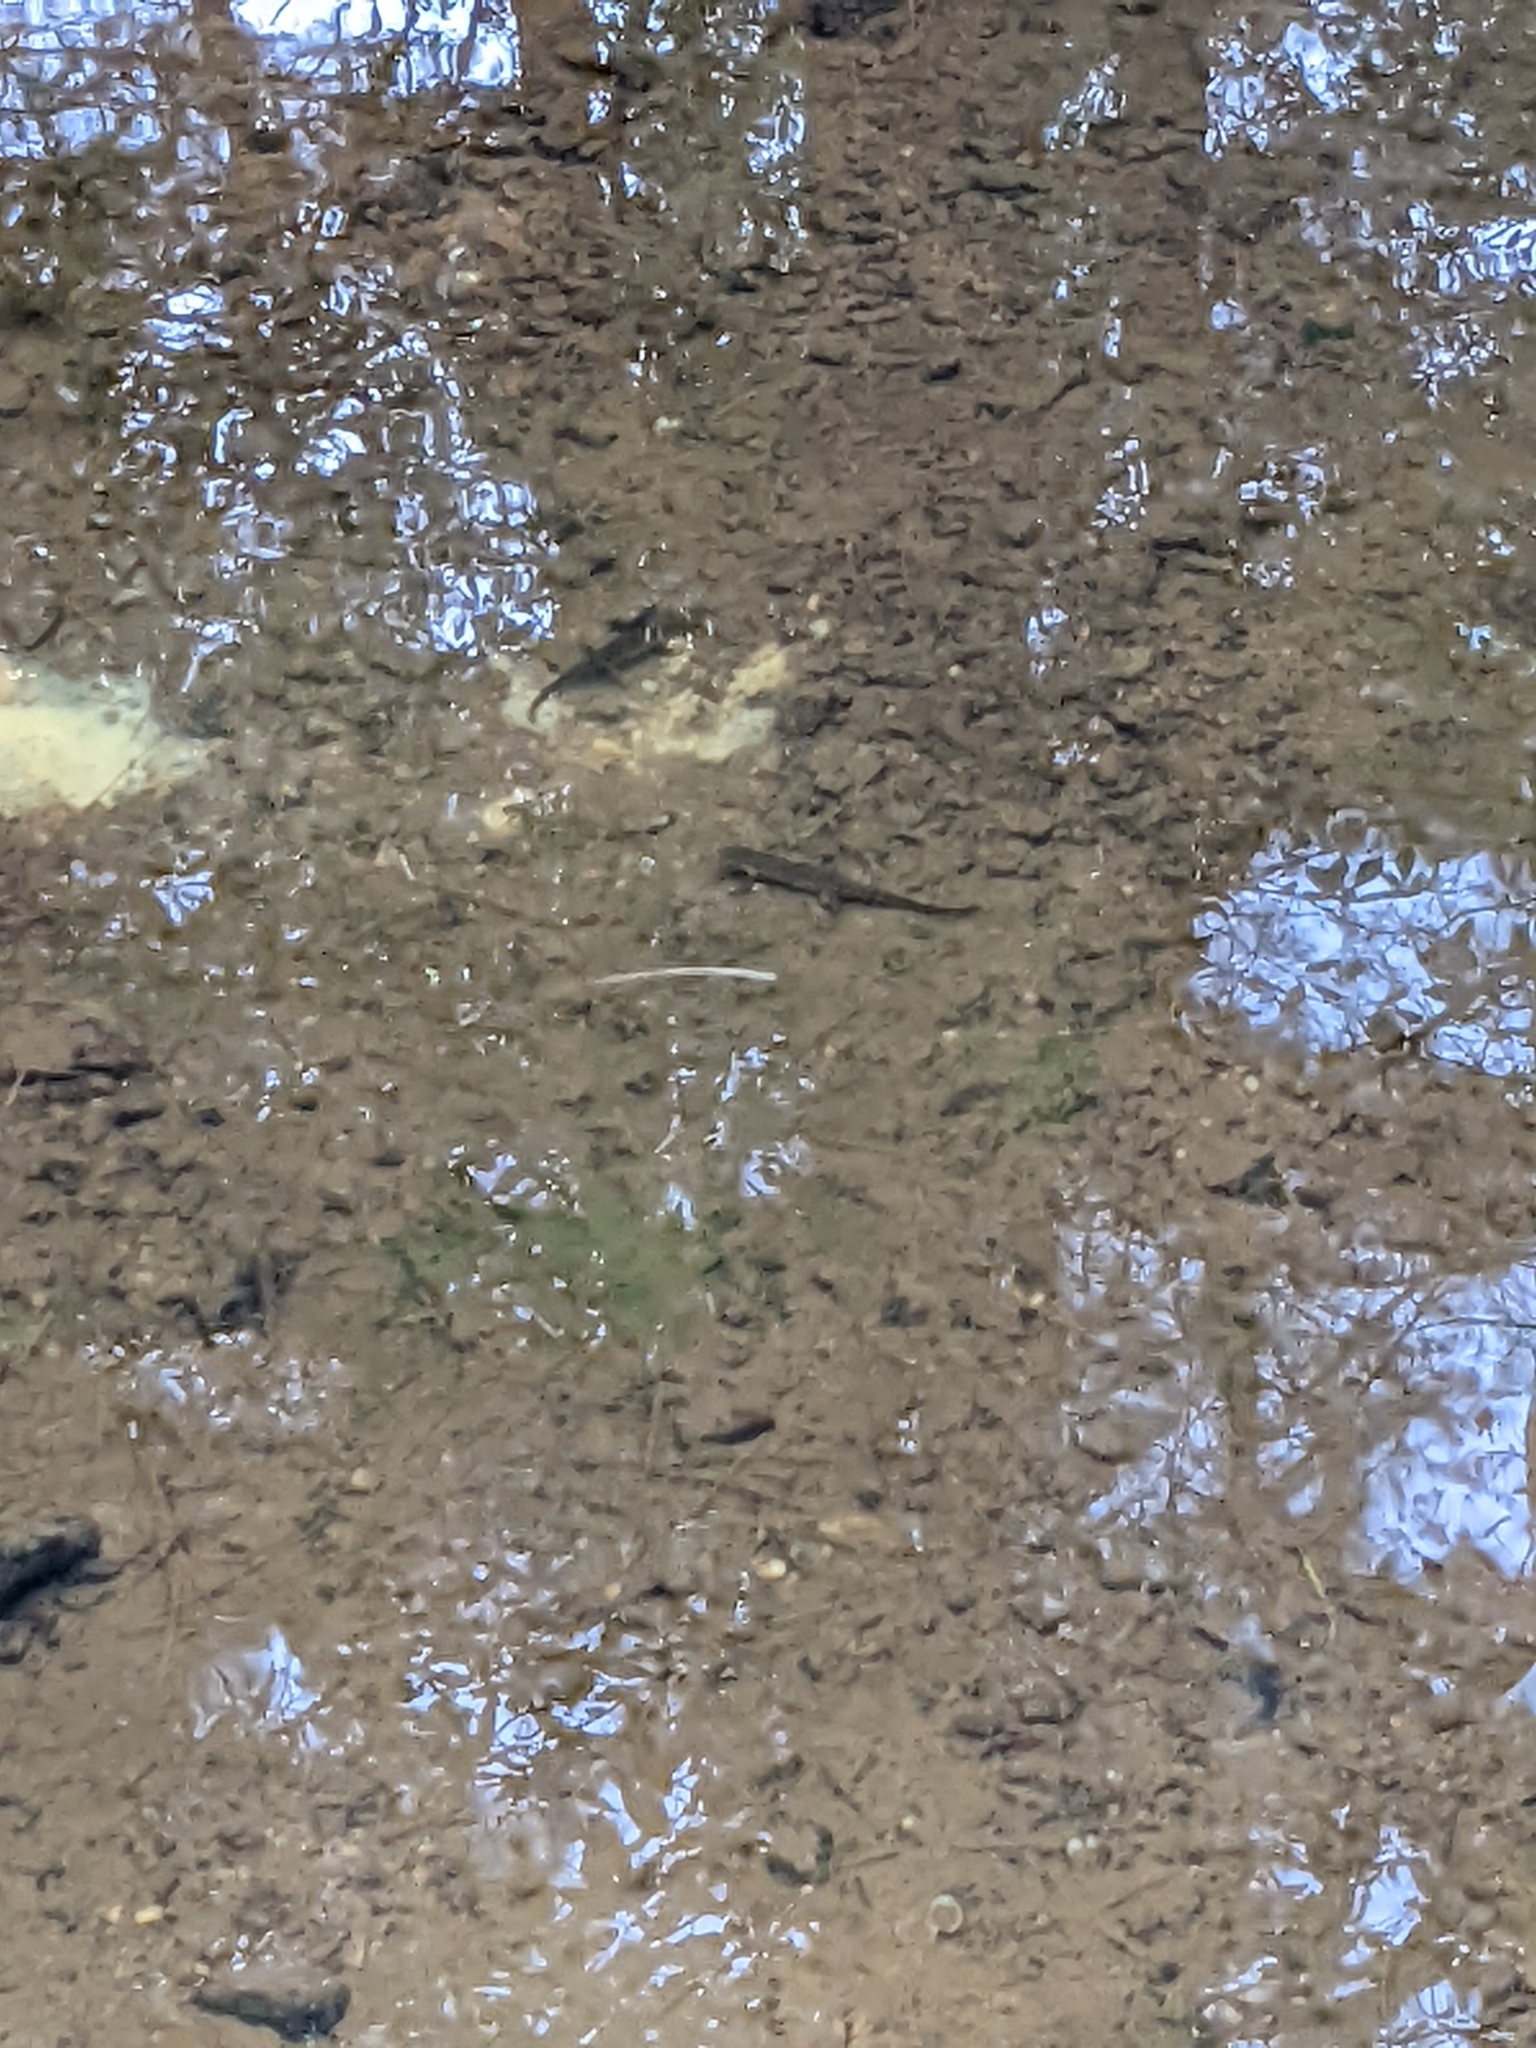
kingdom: Animalia
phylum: Chordata
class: Amphibia
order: Caudata
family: Salamandridae
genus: Notophthalmus
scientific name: Notophthalmus viridescens
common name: Eastern newt
